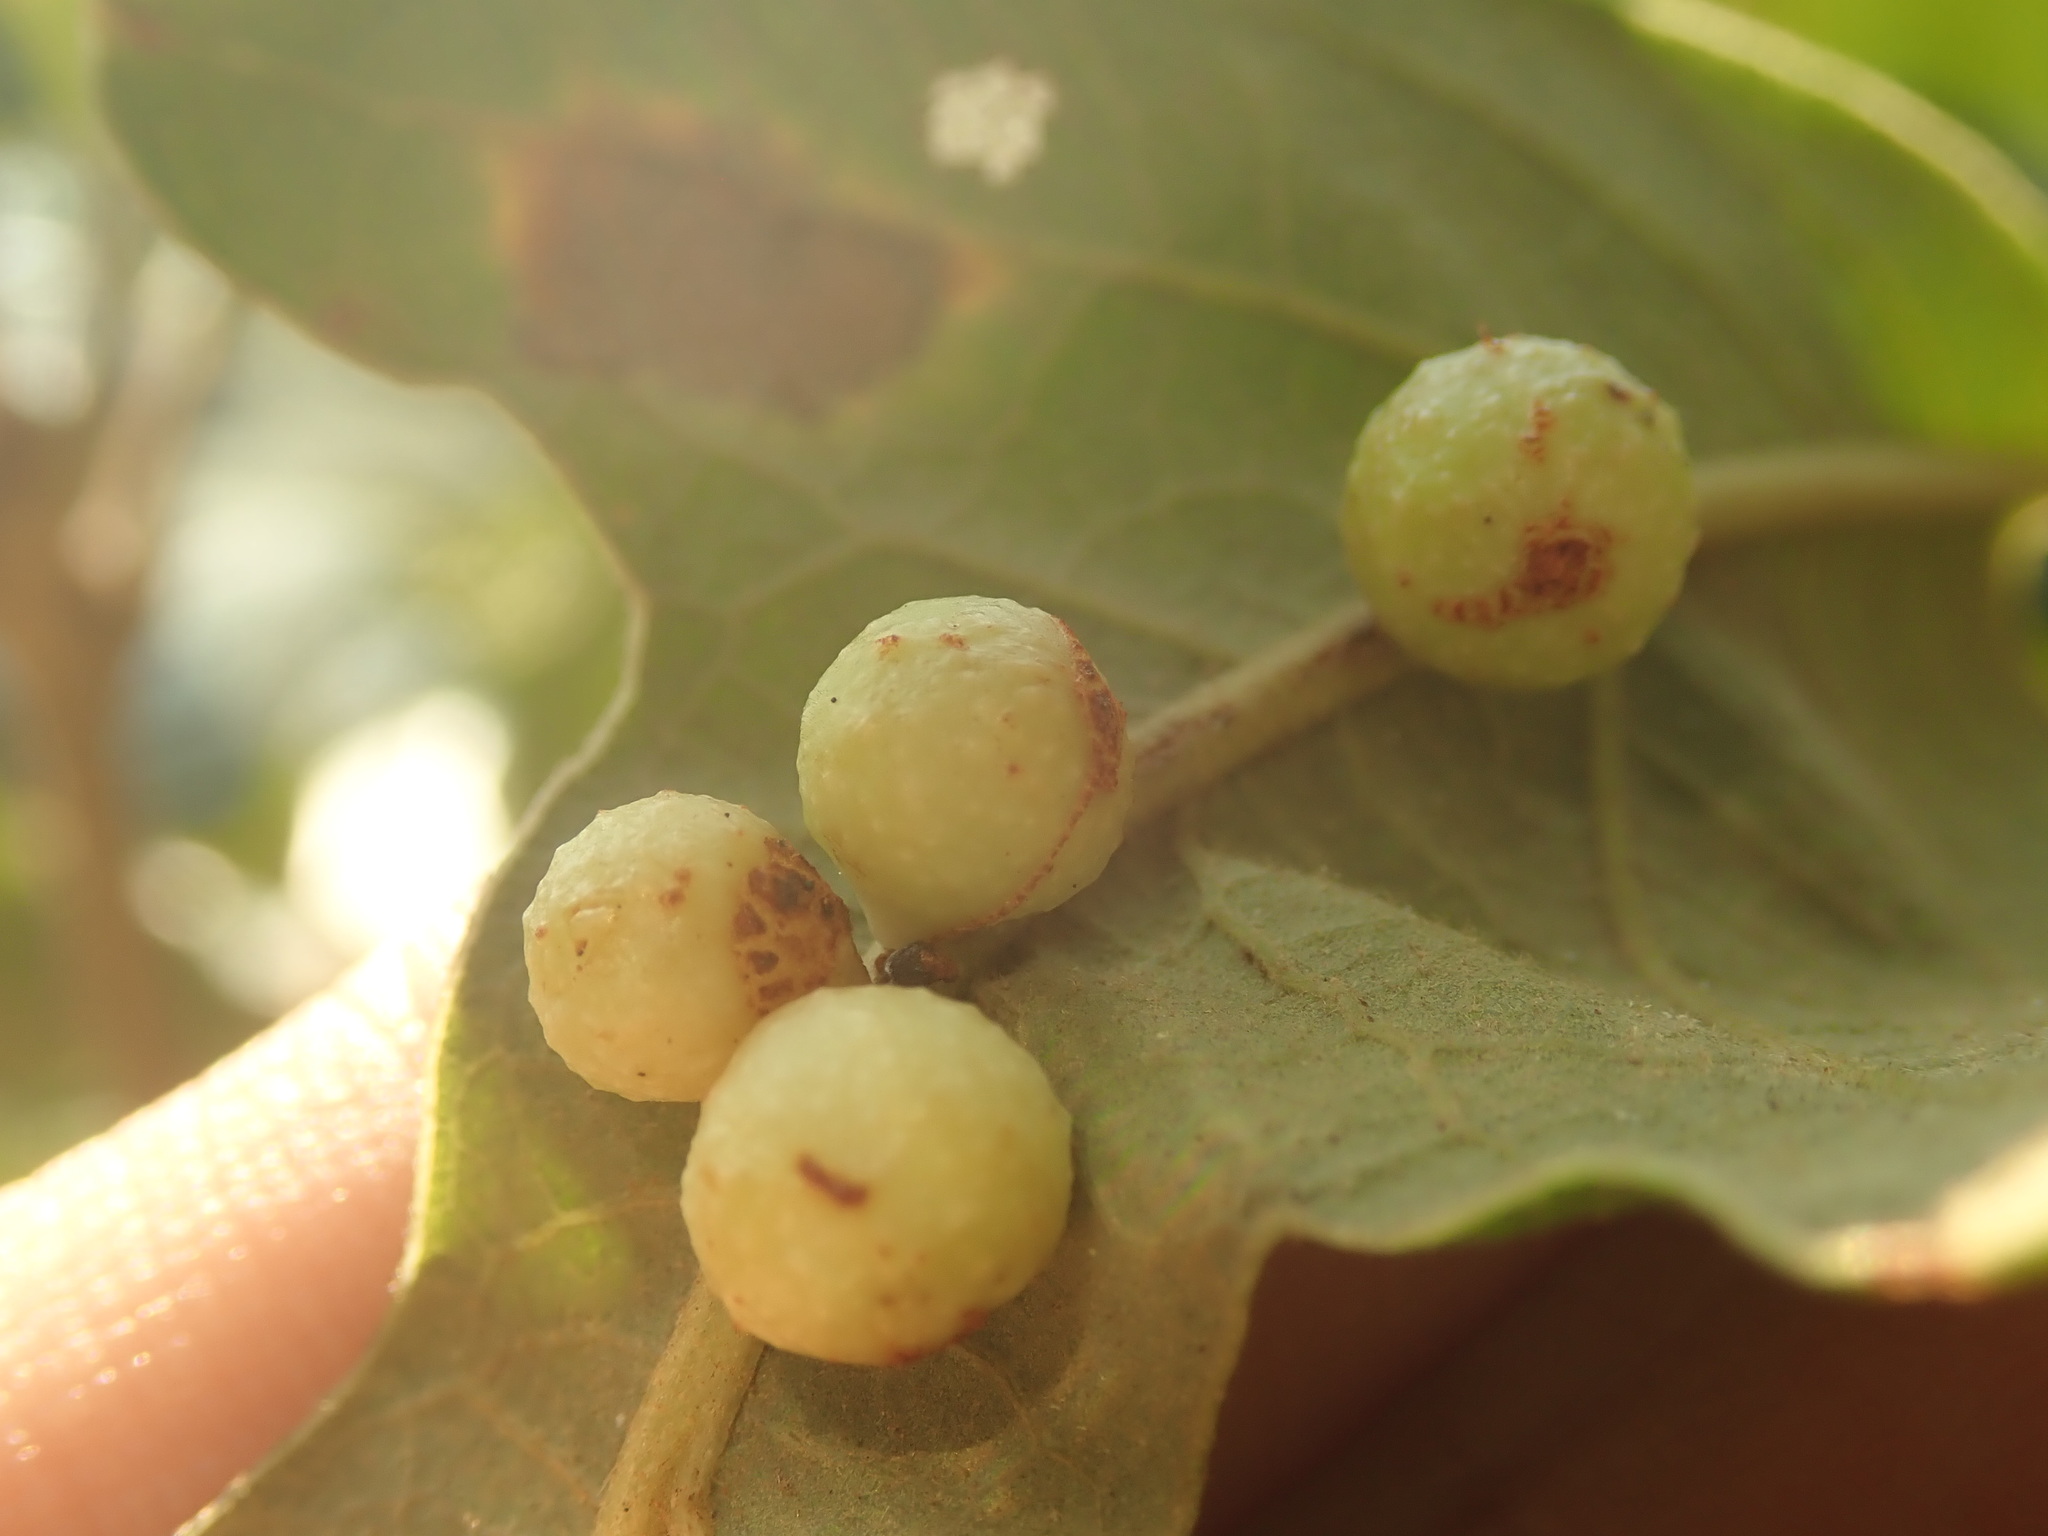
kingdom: Animalia
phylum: Arthropoda
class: Insecta
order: Hymenoptera
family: Cynipidae
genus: Andricus
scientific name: Andricus
